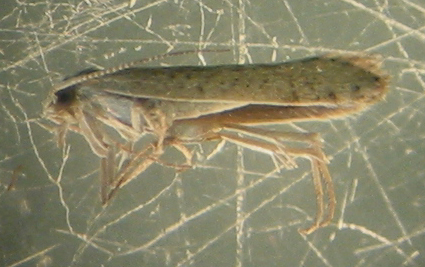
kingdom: Animalia
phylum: Arthropoda
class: Insecta
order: Lepidoptera
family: Plutellidae
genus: Plutella
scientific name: Plutella xylostella
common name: Diamond-back moth
